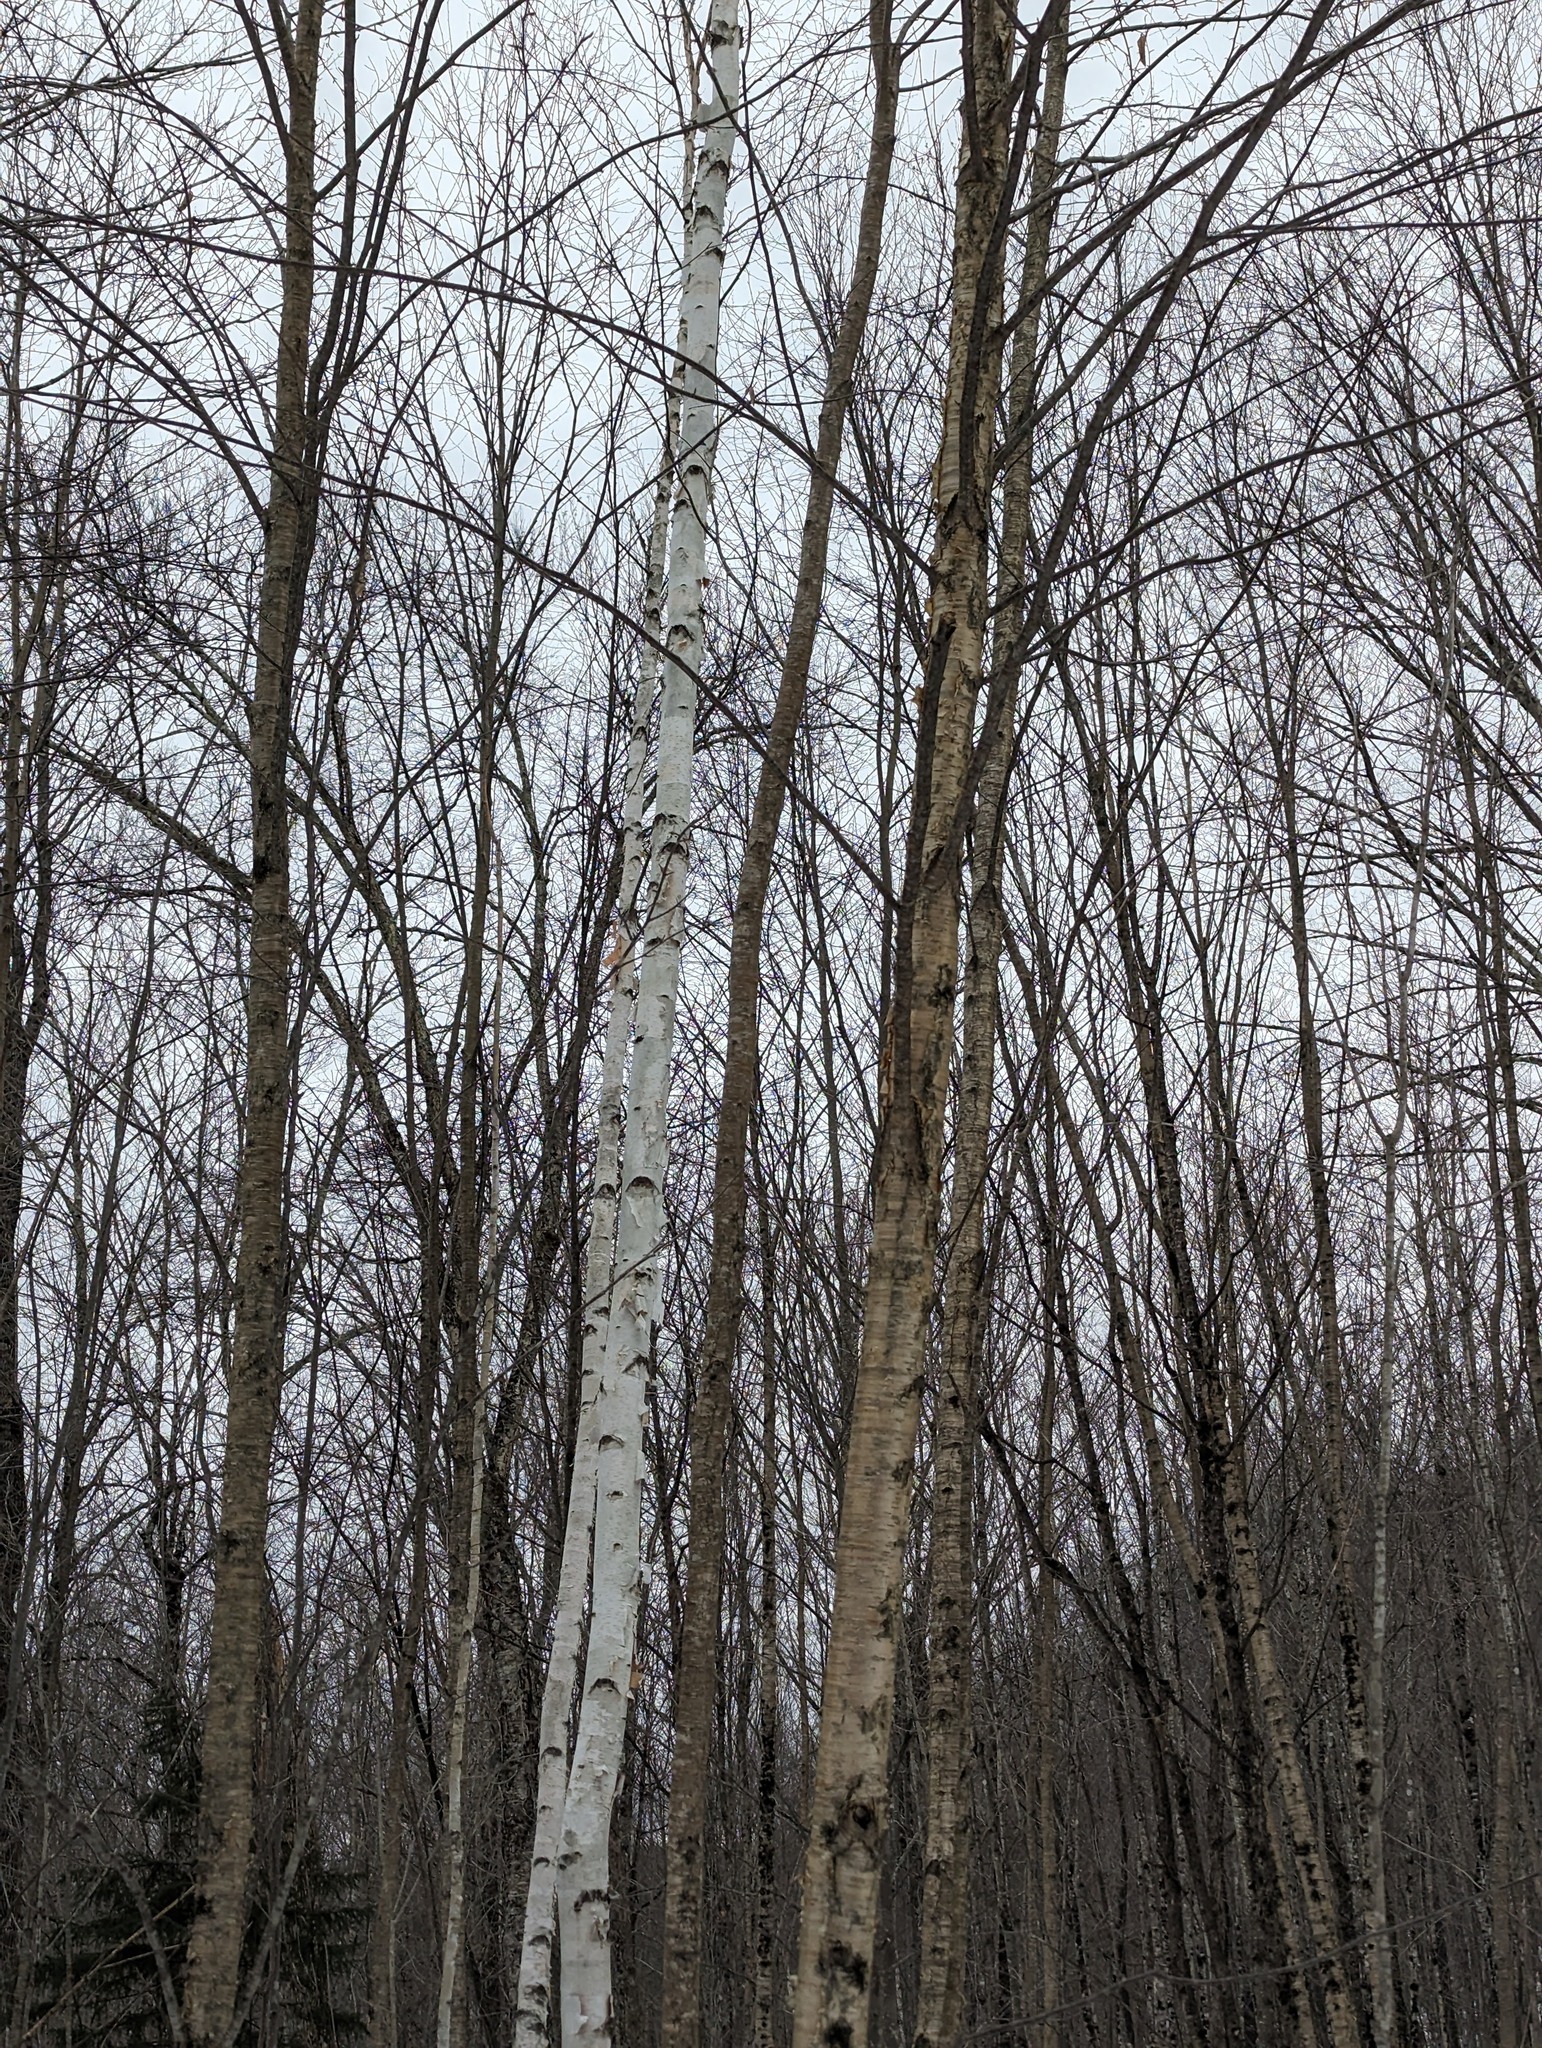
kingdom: Plantae
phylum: Tracheophyta
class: Magnoliopsida
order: Fagales
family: Betulaceae
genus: Betula
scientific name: Betula alleghaniensis
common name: Yellow birch
